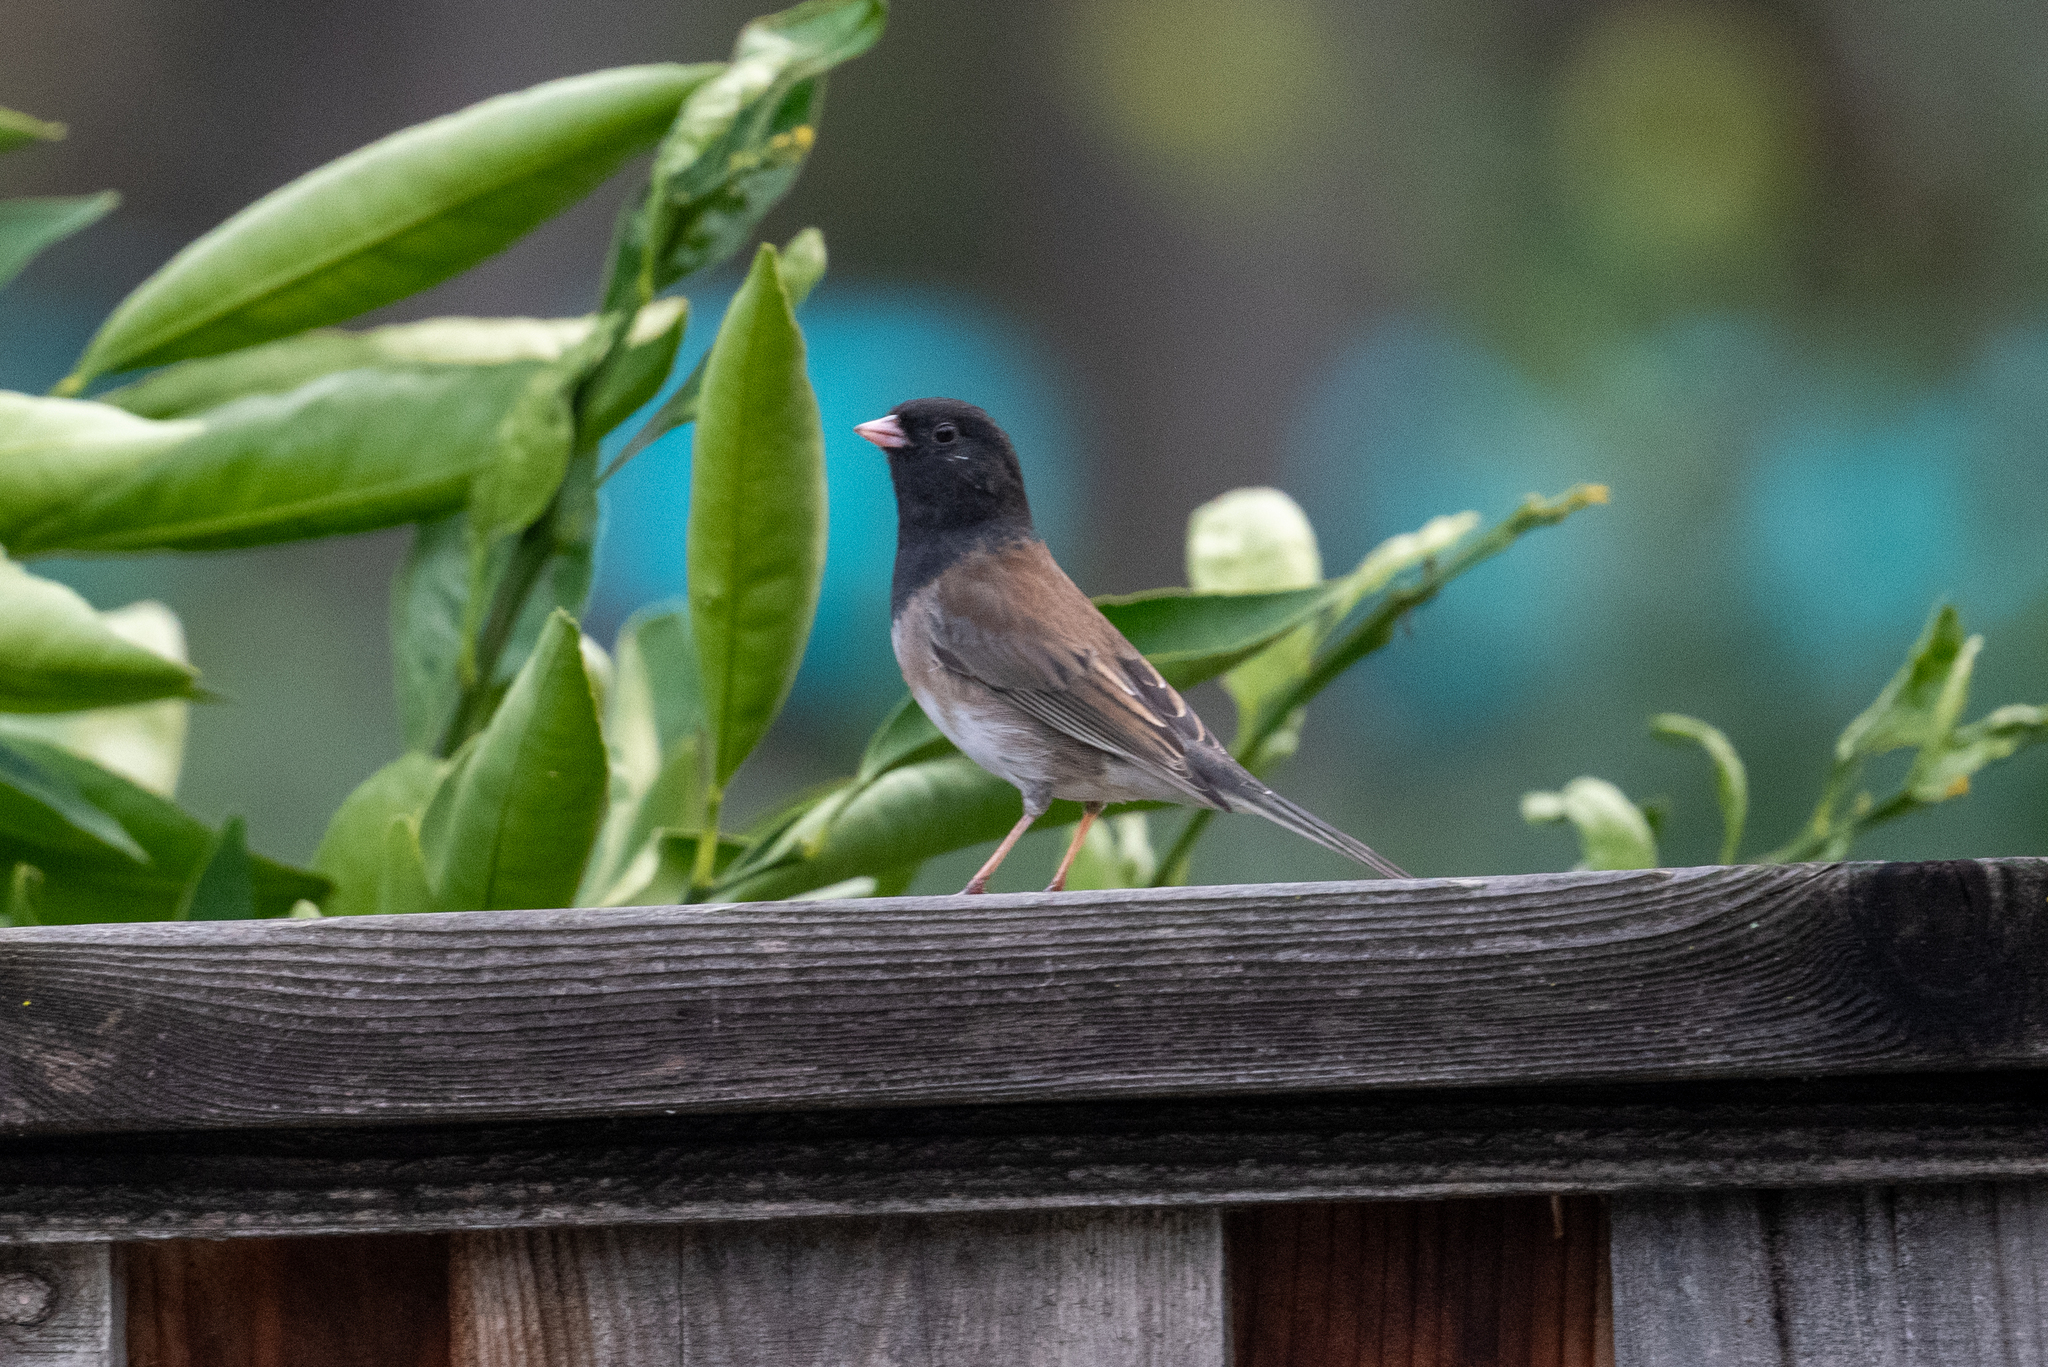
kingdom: Animalia
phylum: Chordata
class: Aves
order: Passeriformes
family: Passerellidae
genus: Junco
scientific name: Junco hyemalis
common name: Dark-eyed junco
